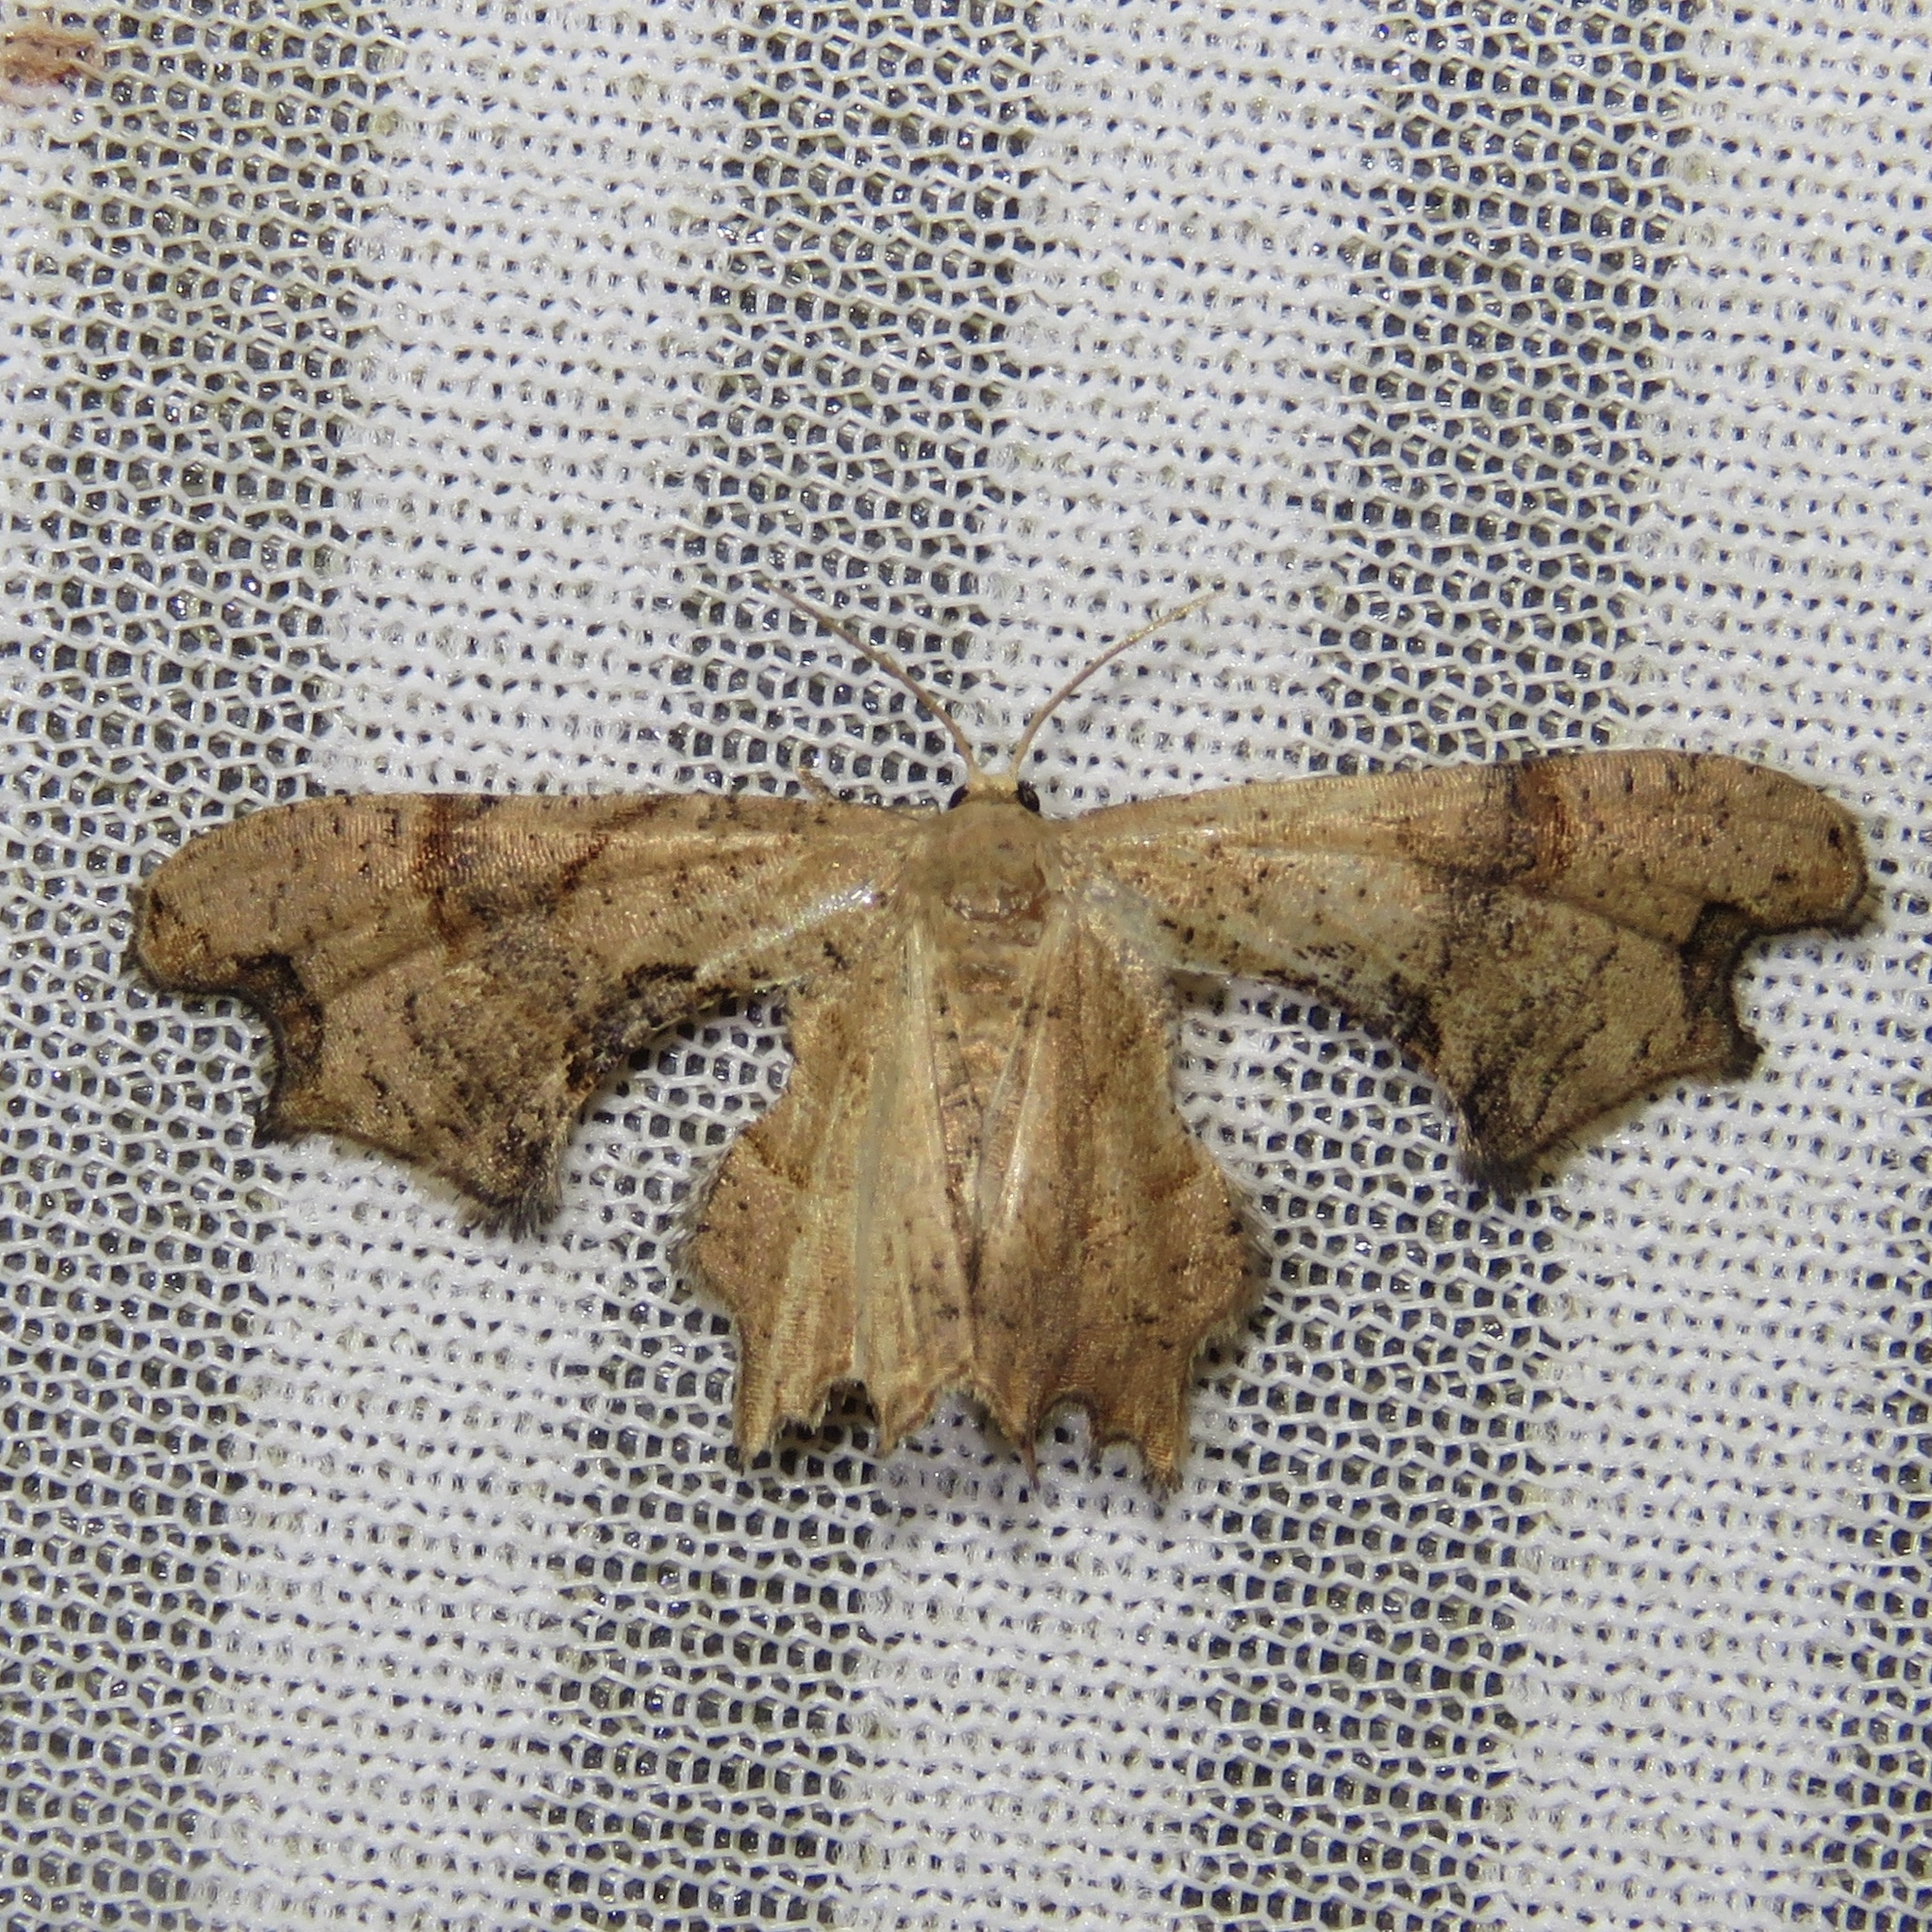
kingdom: Animalia
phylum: Arthropoda
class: Insecta
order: Lepidoptera
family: Uraniidae
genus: Epiplema
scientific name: Epiplema Calledapteryx dryopterata
